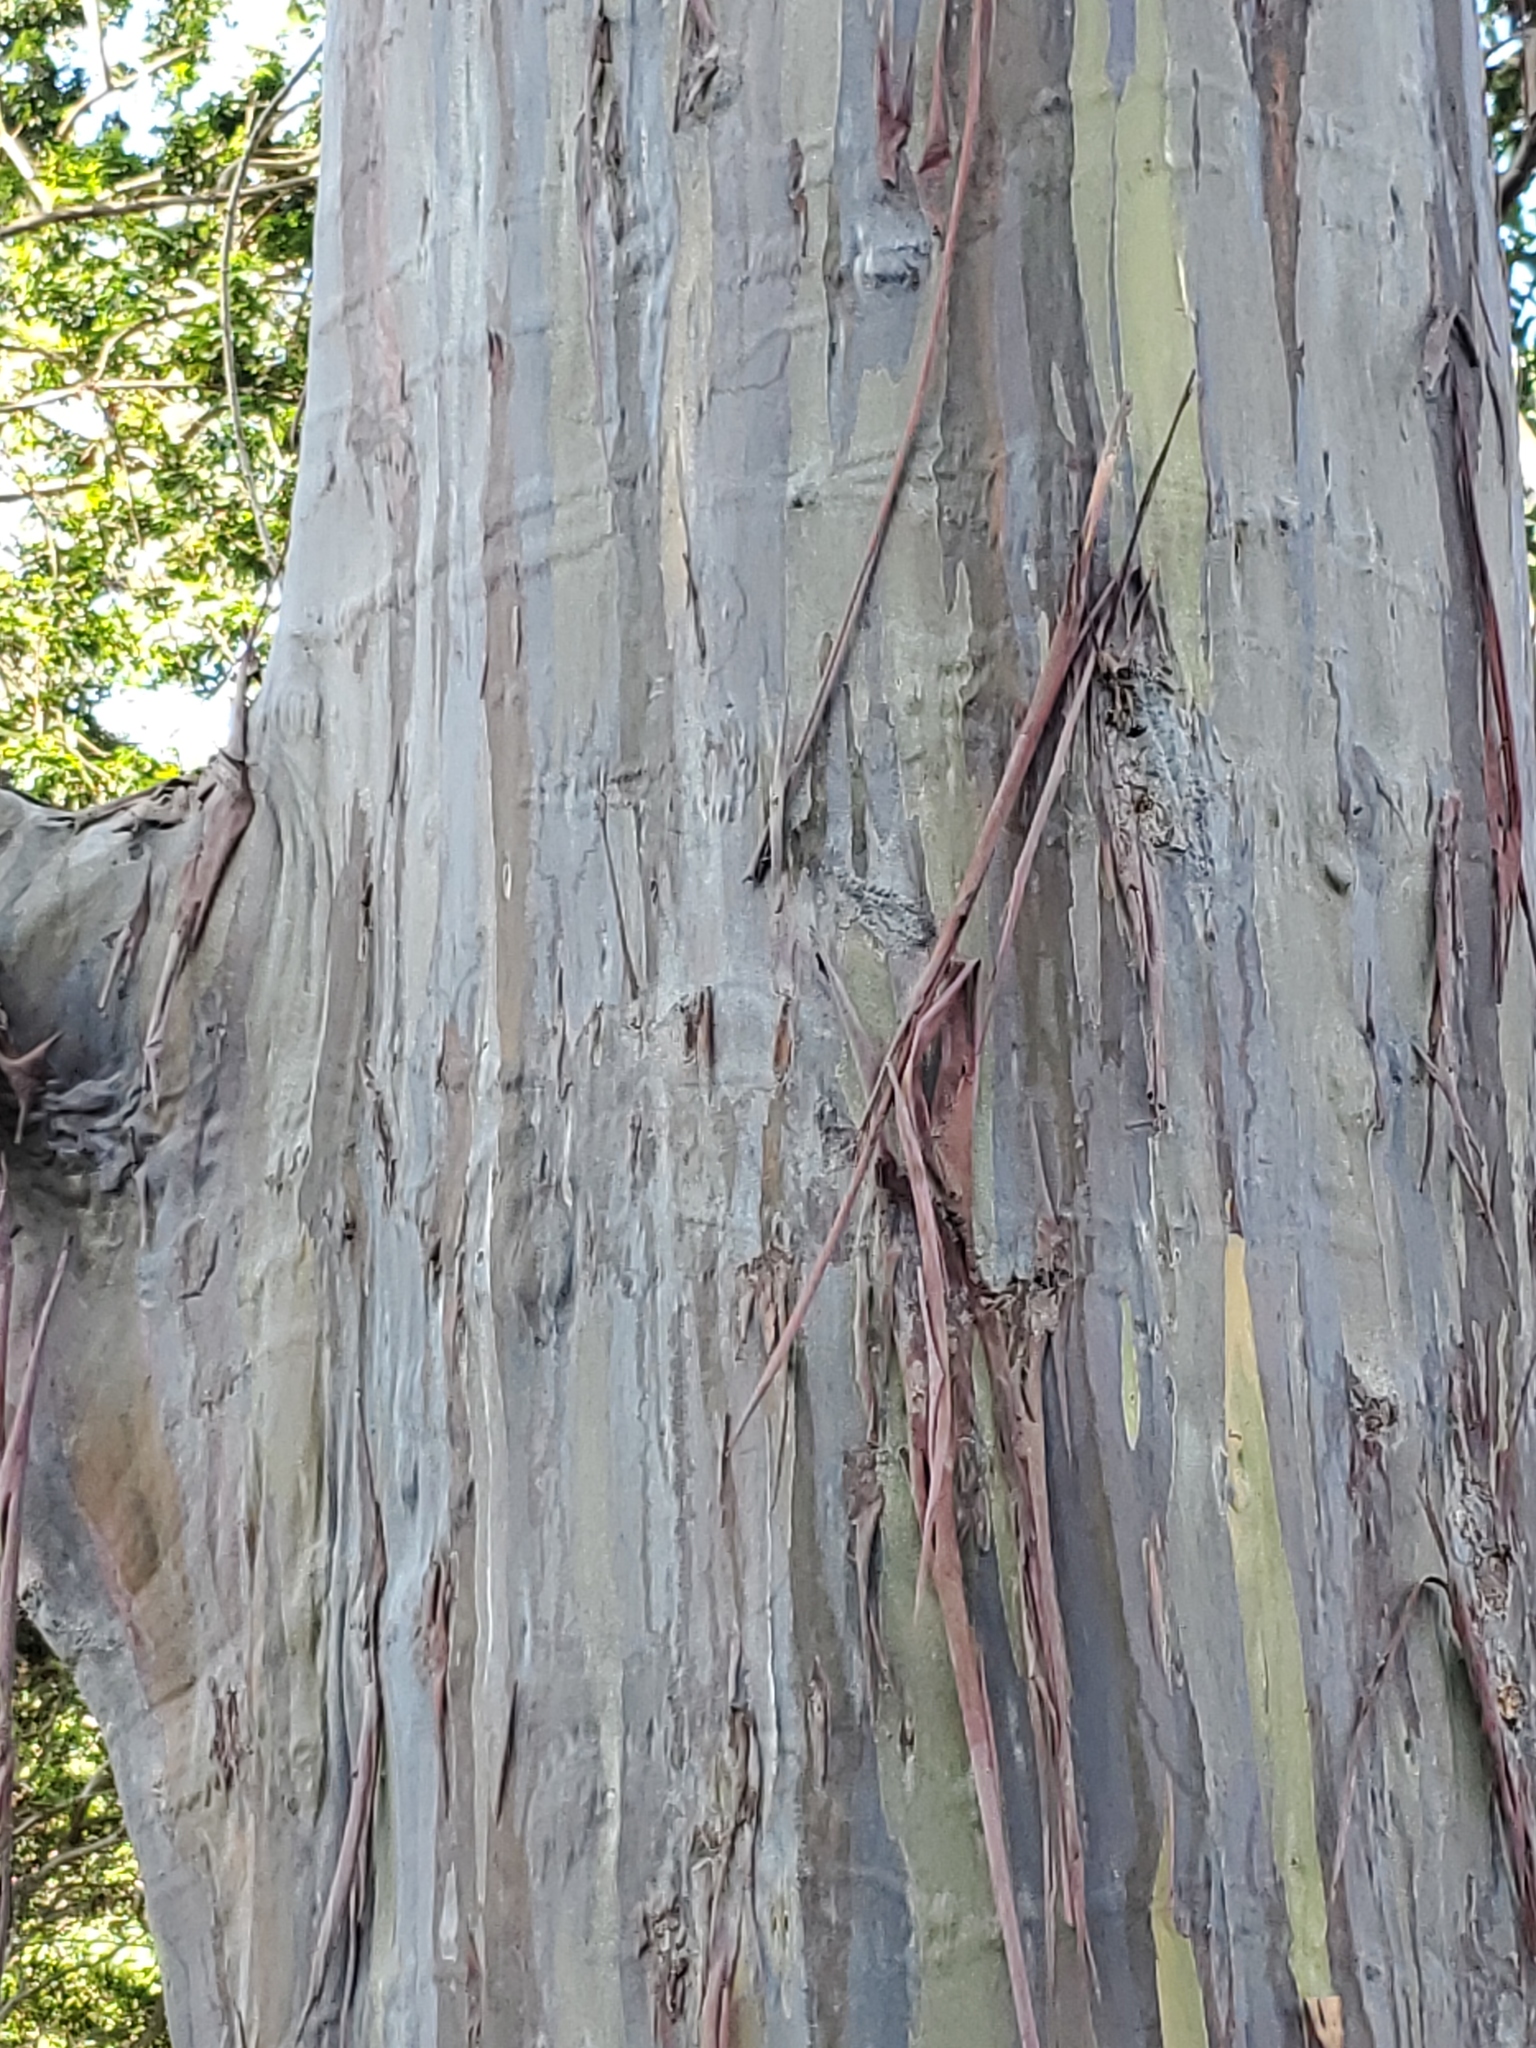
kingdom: Plantae
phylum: Tracheophyta
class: Magnoliopsida
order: Myrtales
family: Myrtaceae
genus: Eucalyptus
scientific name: Eucalyptus deglupta
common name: Mindanao gum
